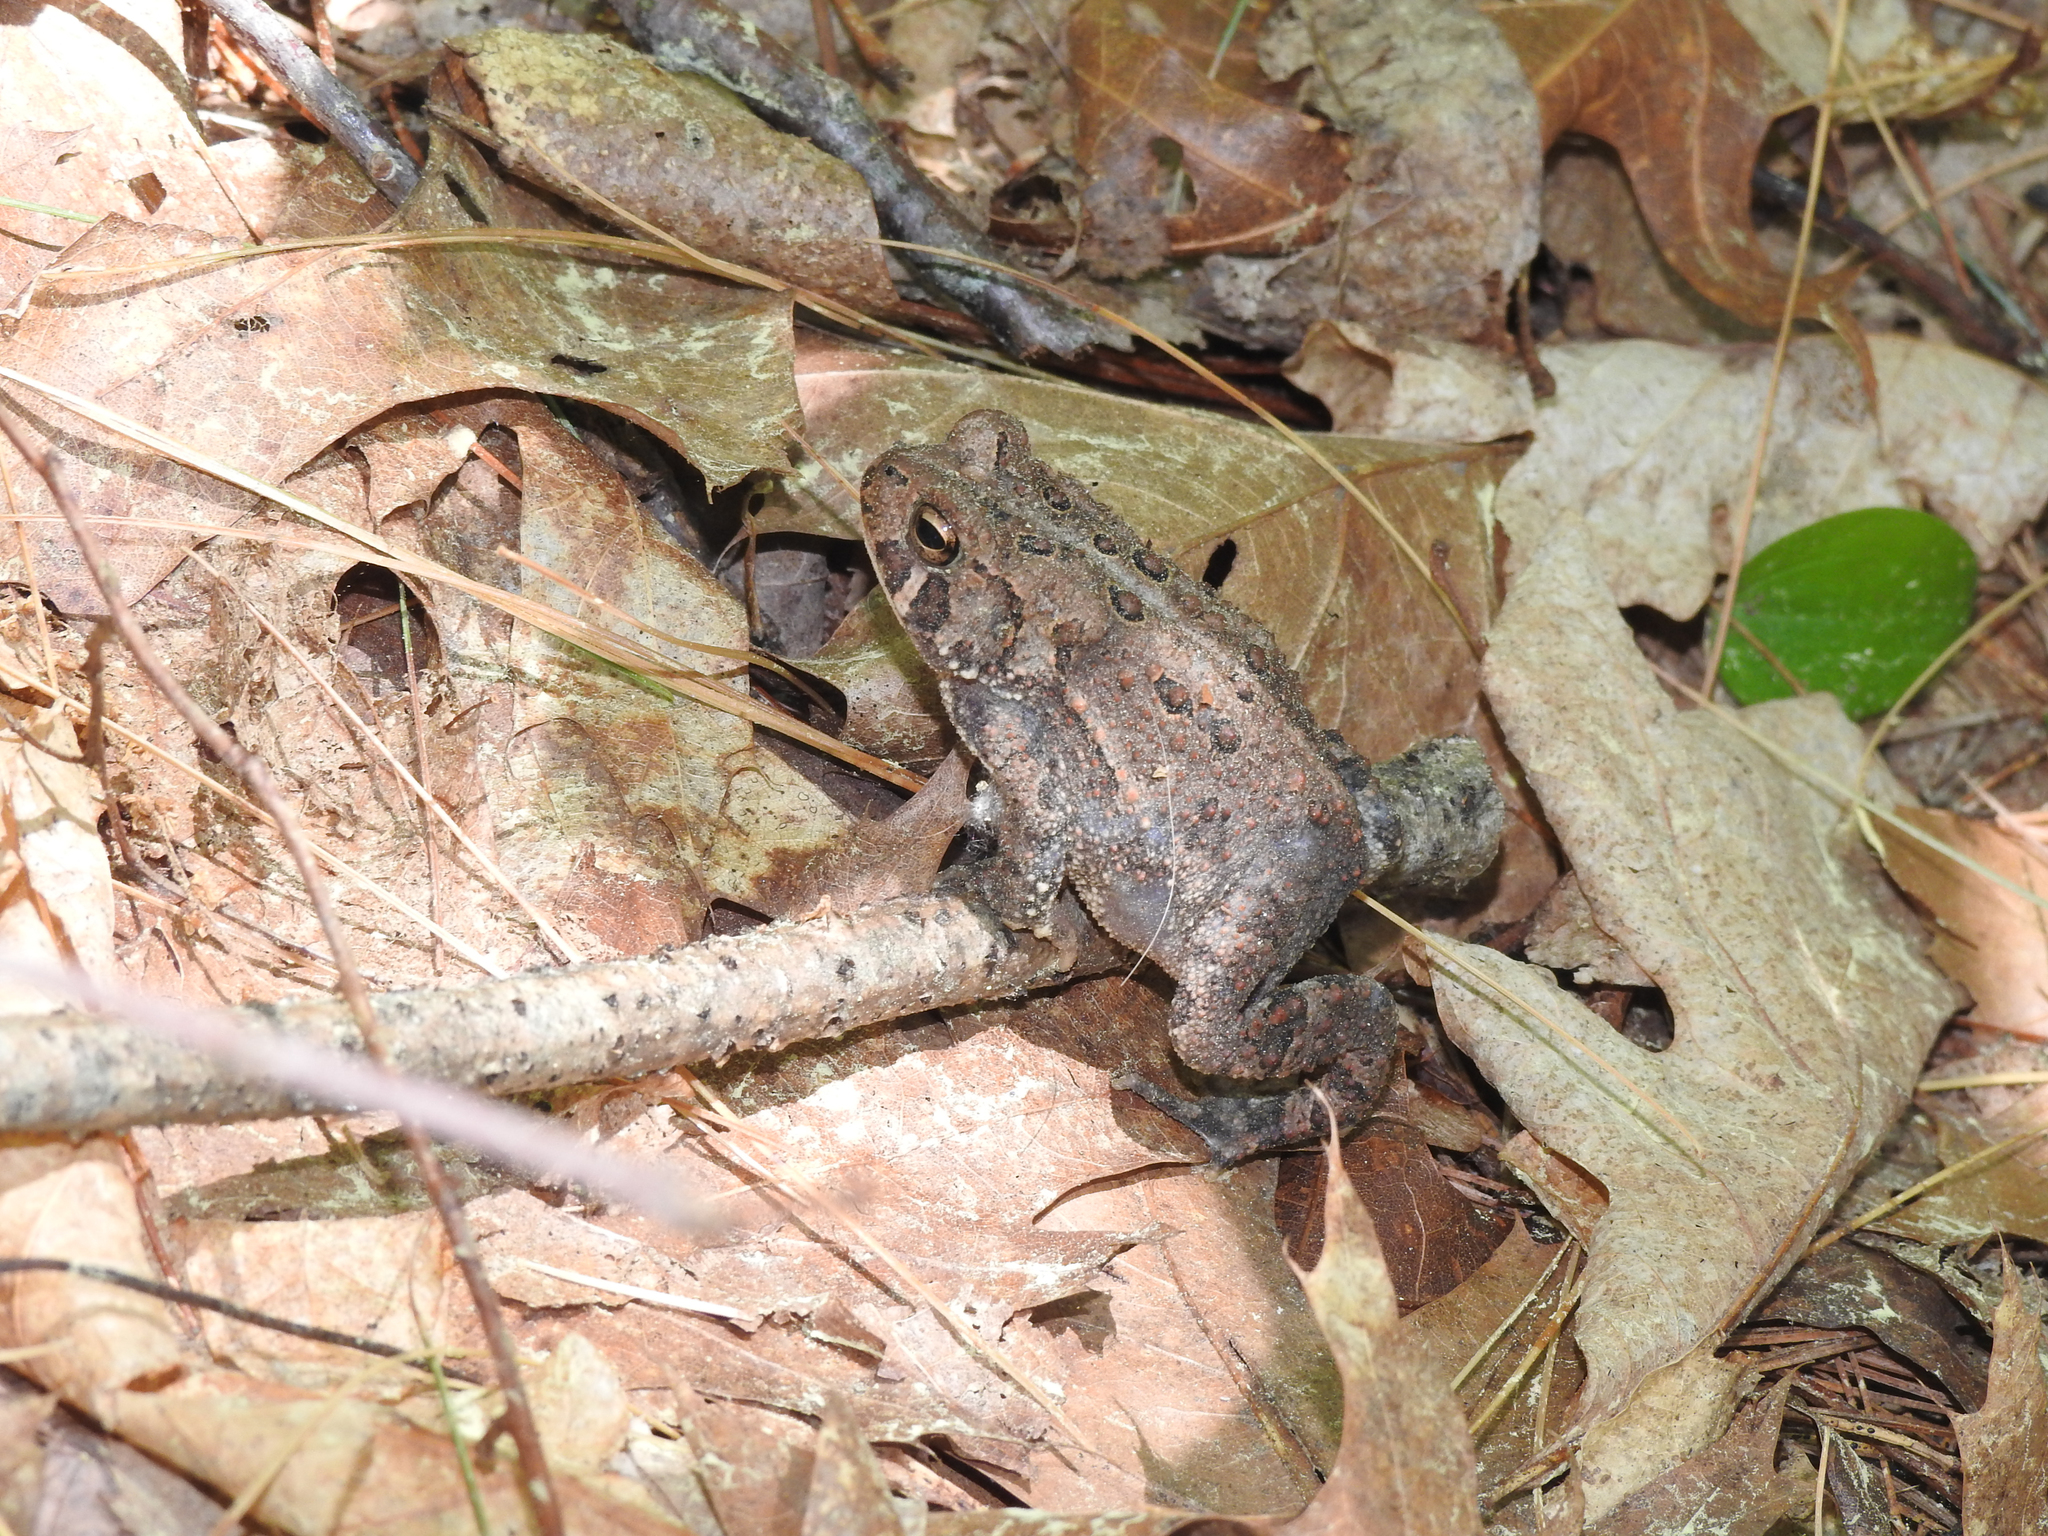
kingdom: Animalia
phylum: Chordata
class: Amphibia
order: Anura
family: Bufonidae
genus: Anaxyrus
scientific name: Anaxyrus americanus
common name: American toad
